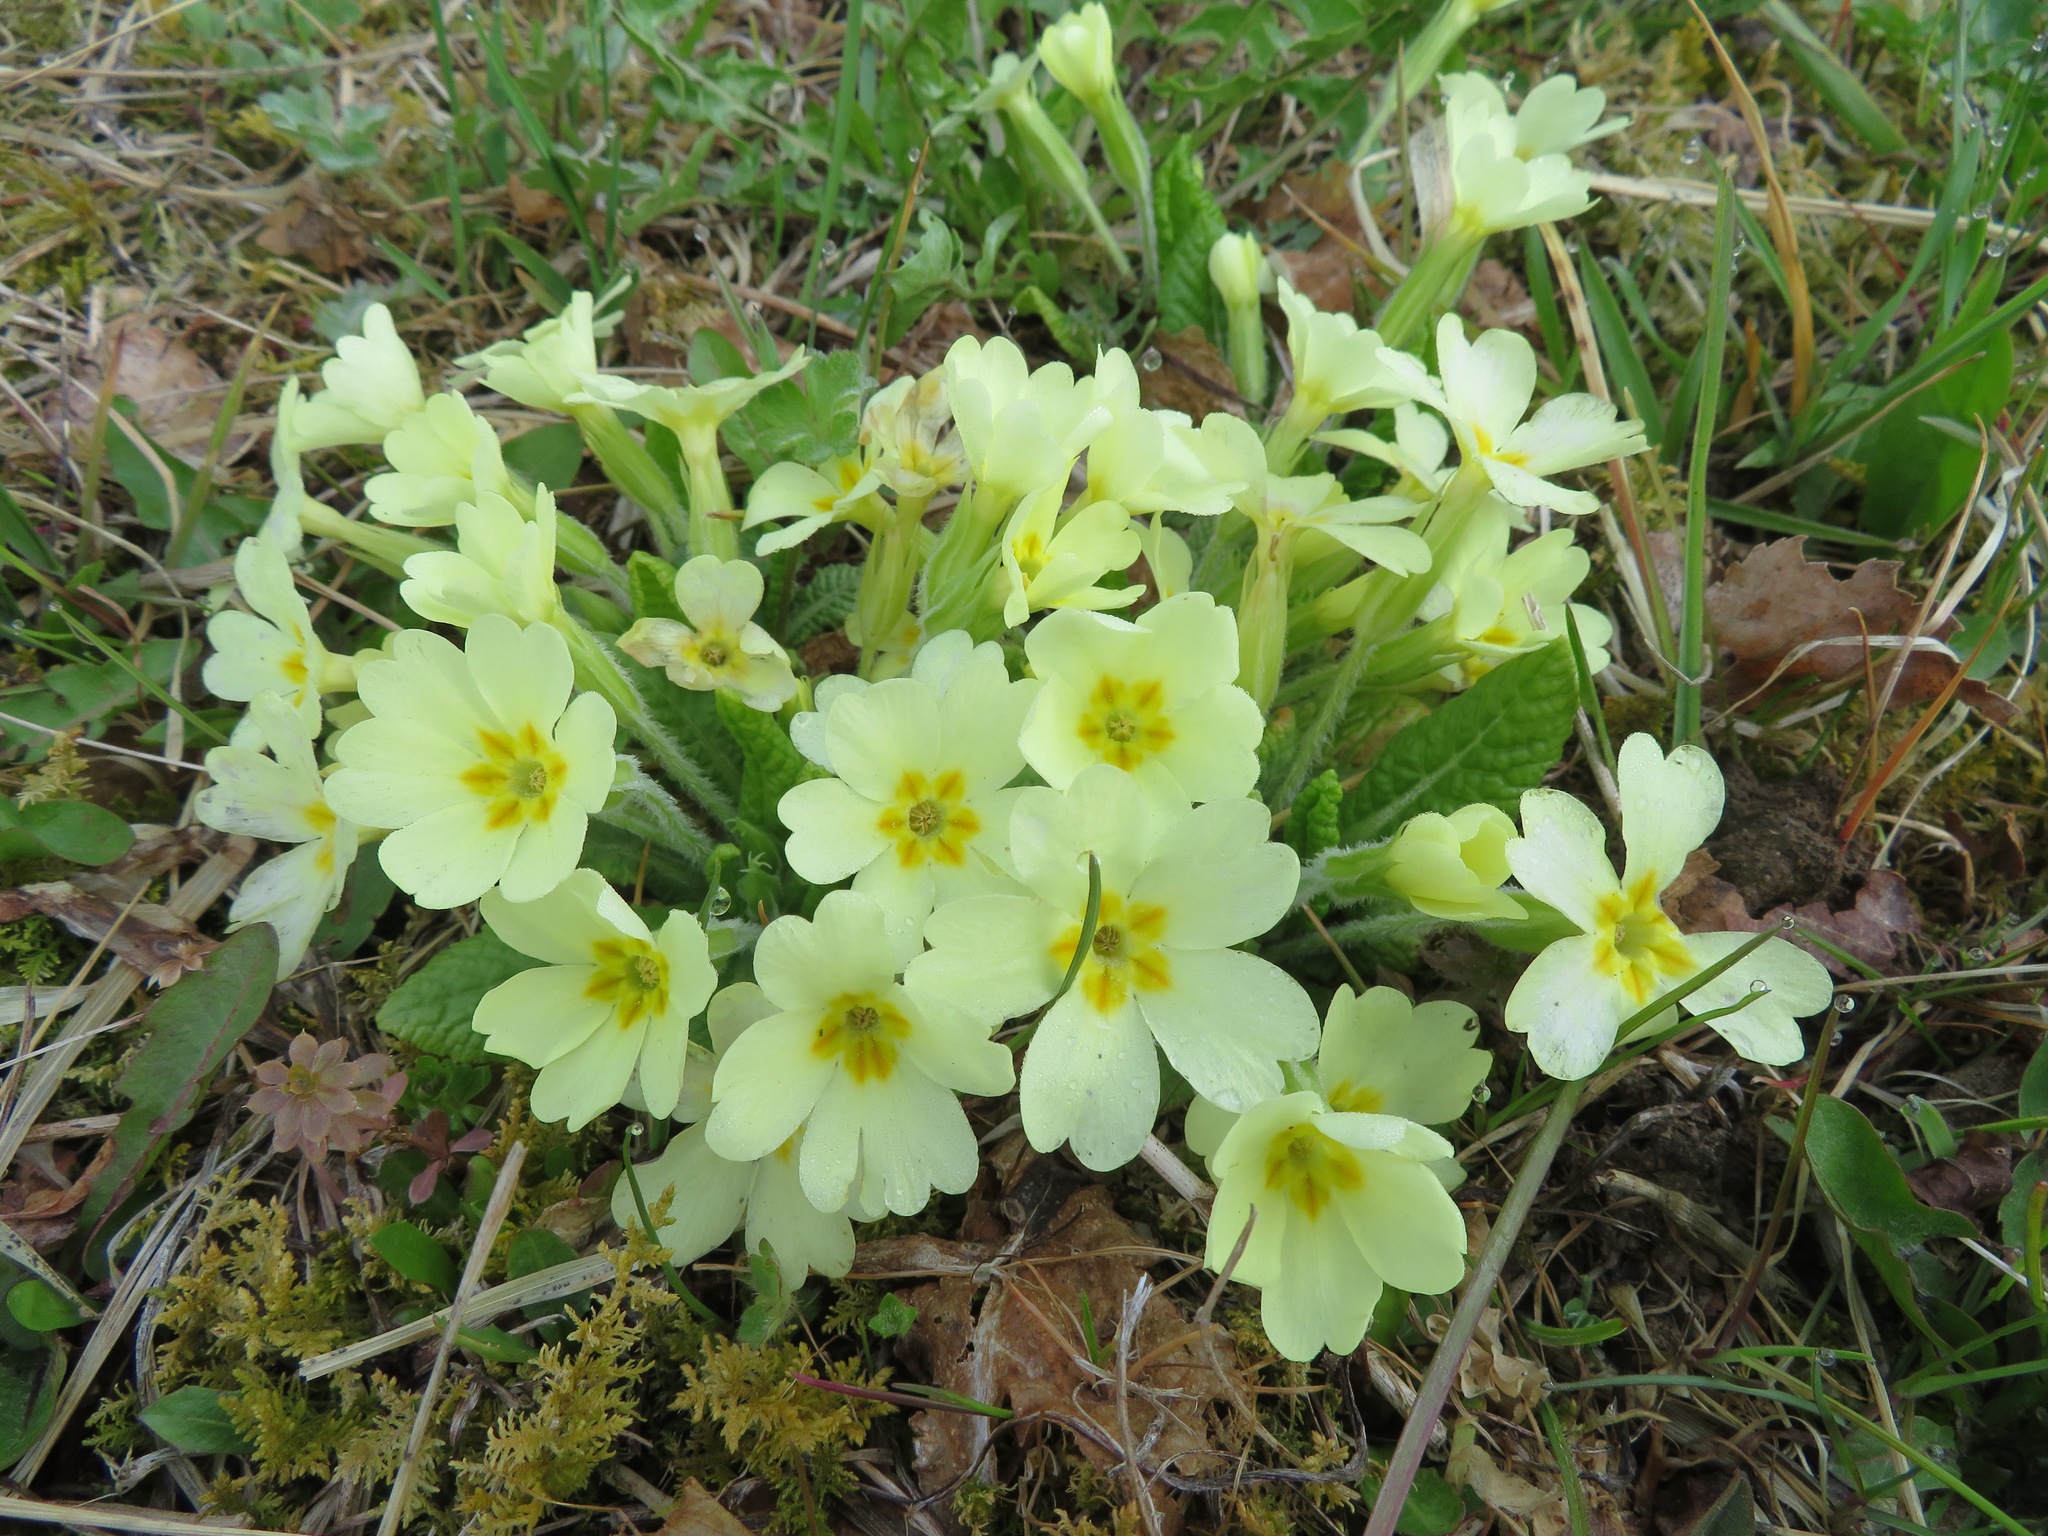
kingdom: Plantae
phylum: Tracheophyta
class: Magnoliopsida
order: Ericales
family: Primulaceae
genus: Primula
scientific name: Primula vulgaris
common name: Primrose
